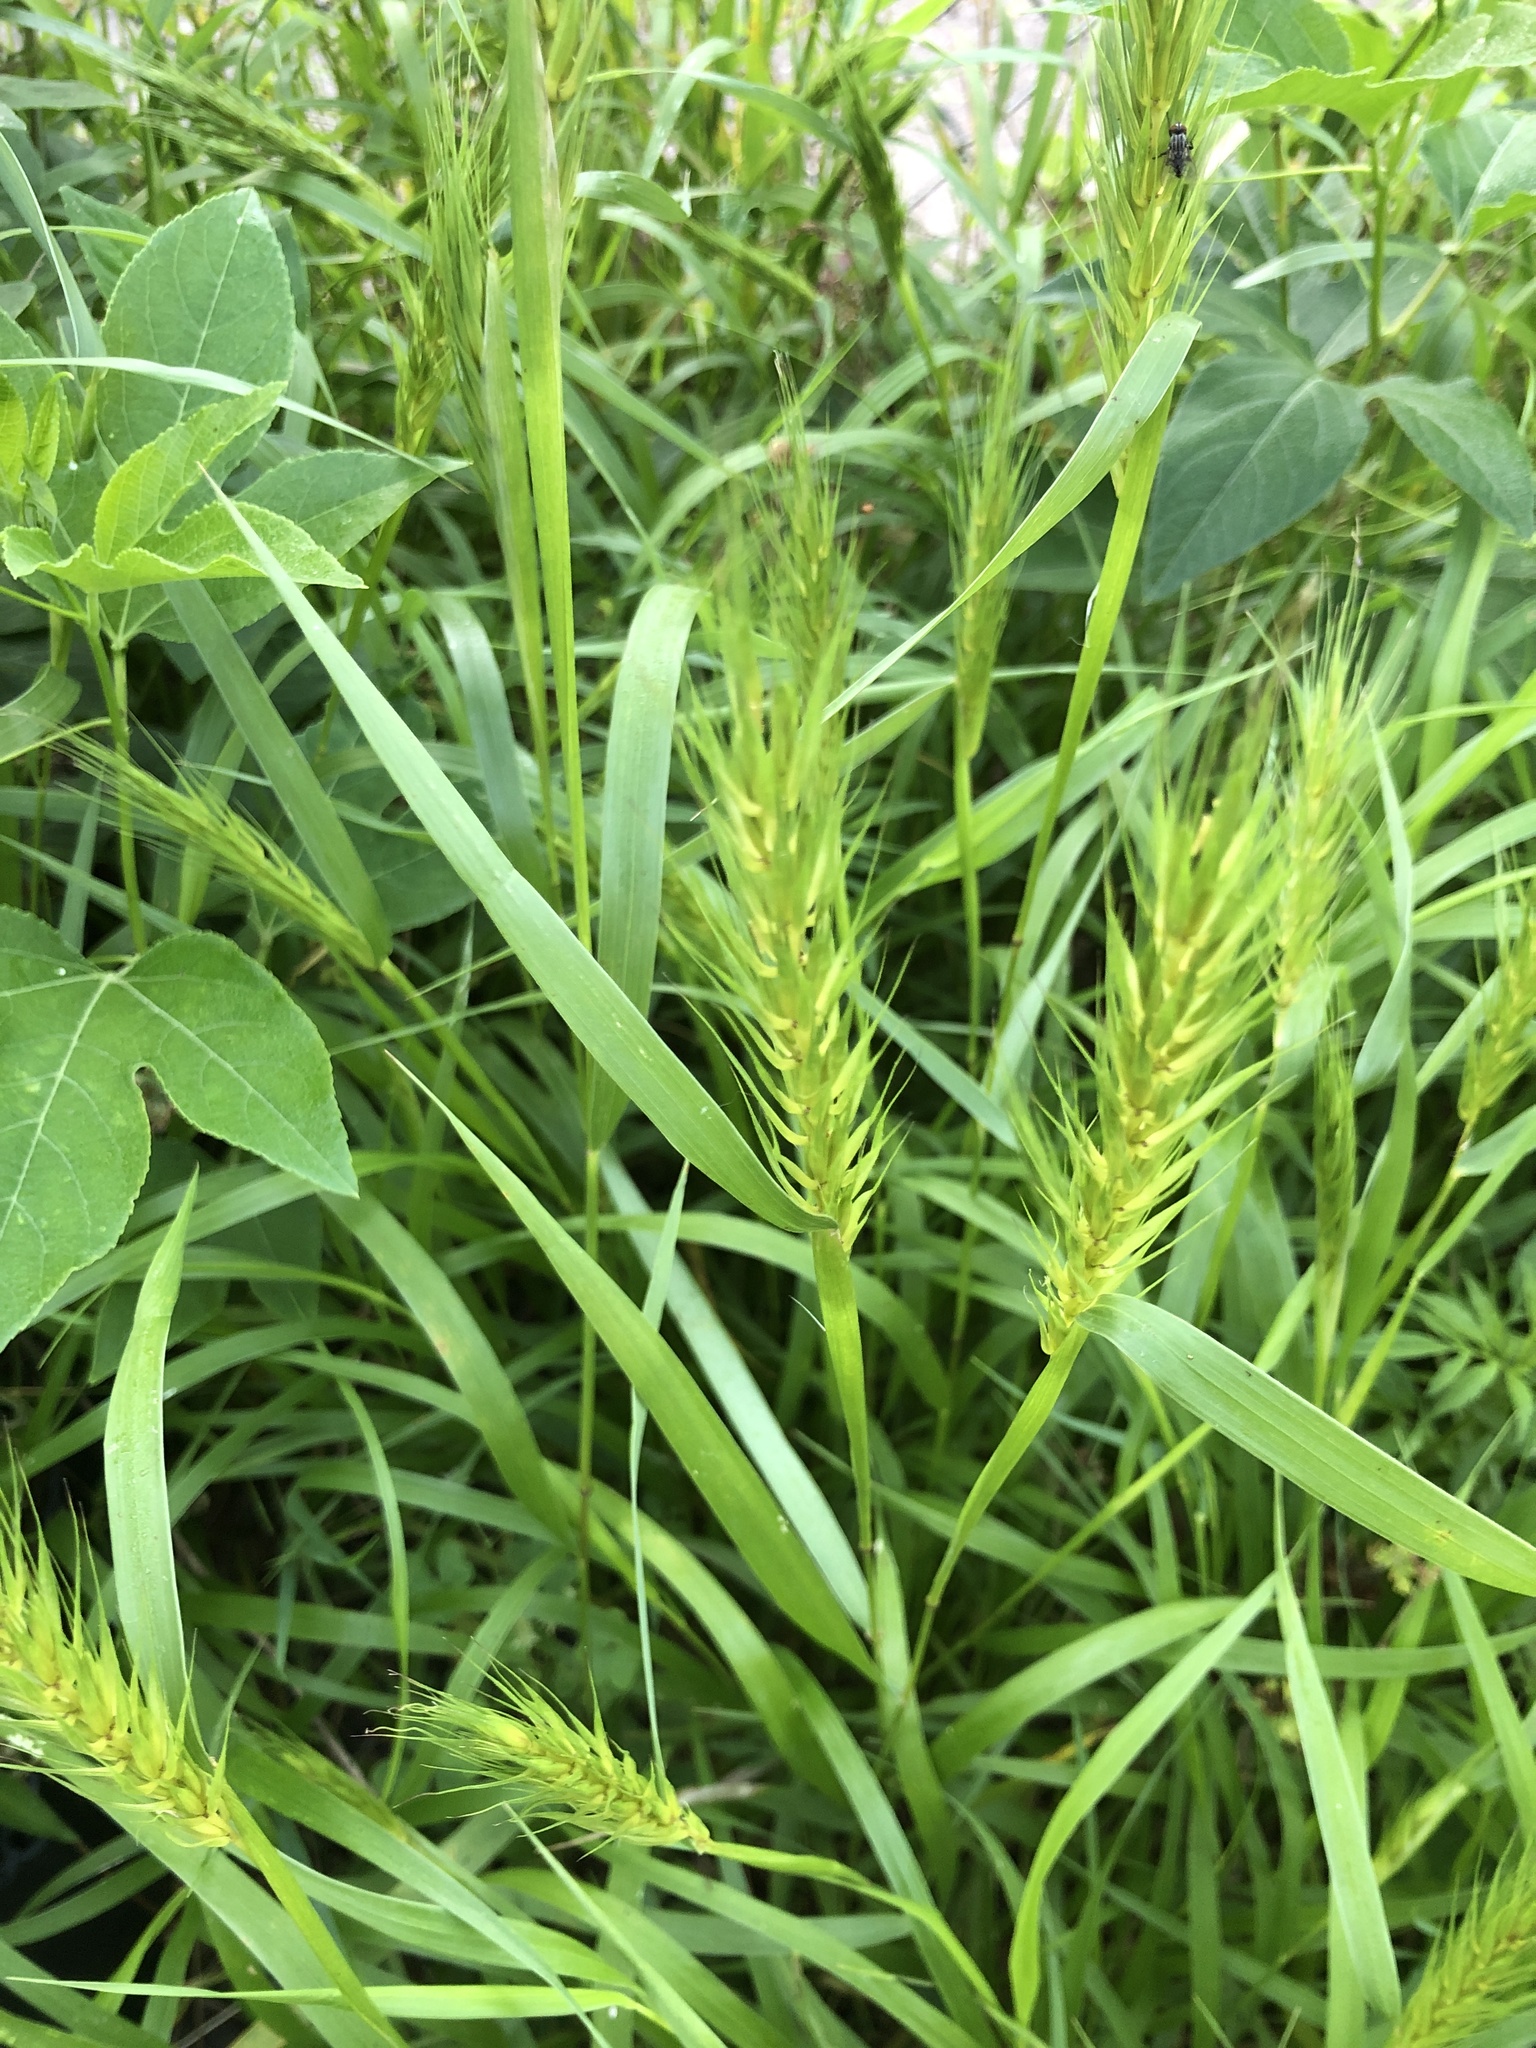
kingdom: Plantae
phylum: Tracheophyta
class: Liliopsida
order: Poales
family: Poaceae
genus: Elymus
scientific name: Elymus virginicus
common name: Common eastern wildrye
